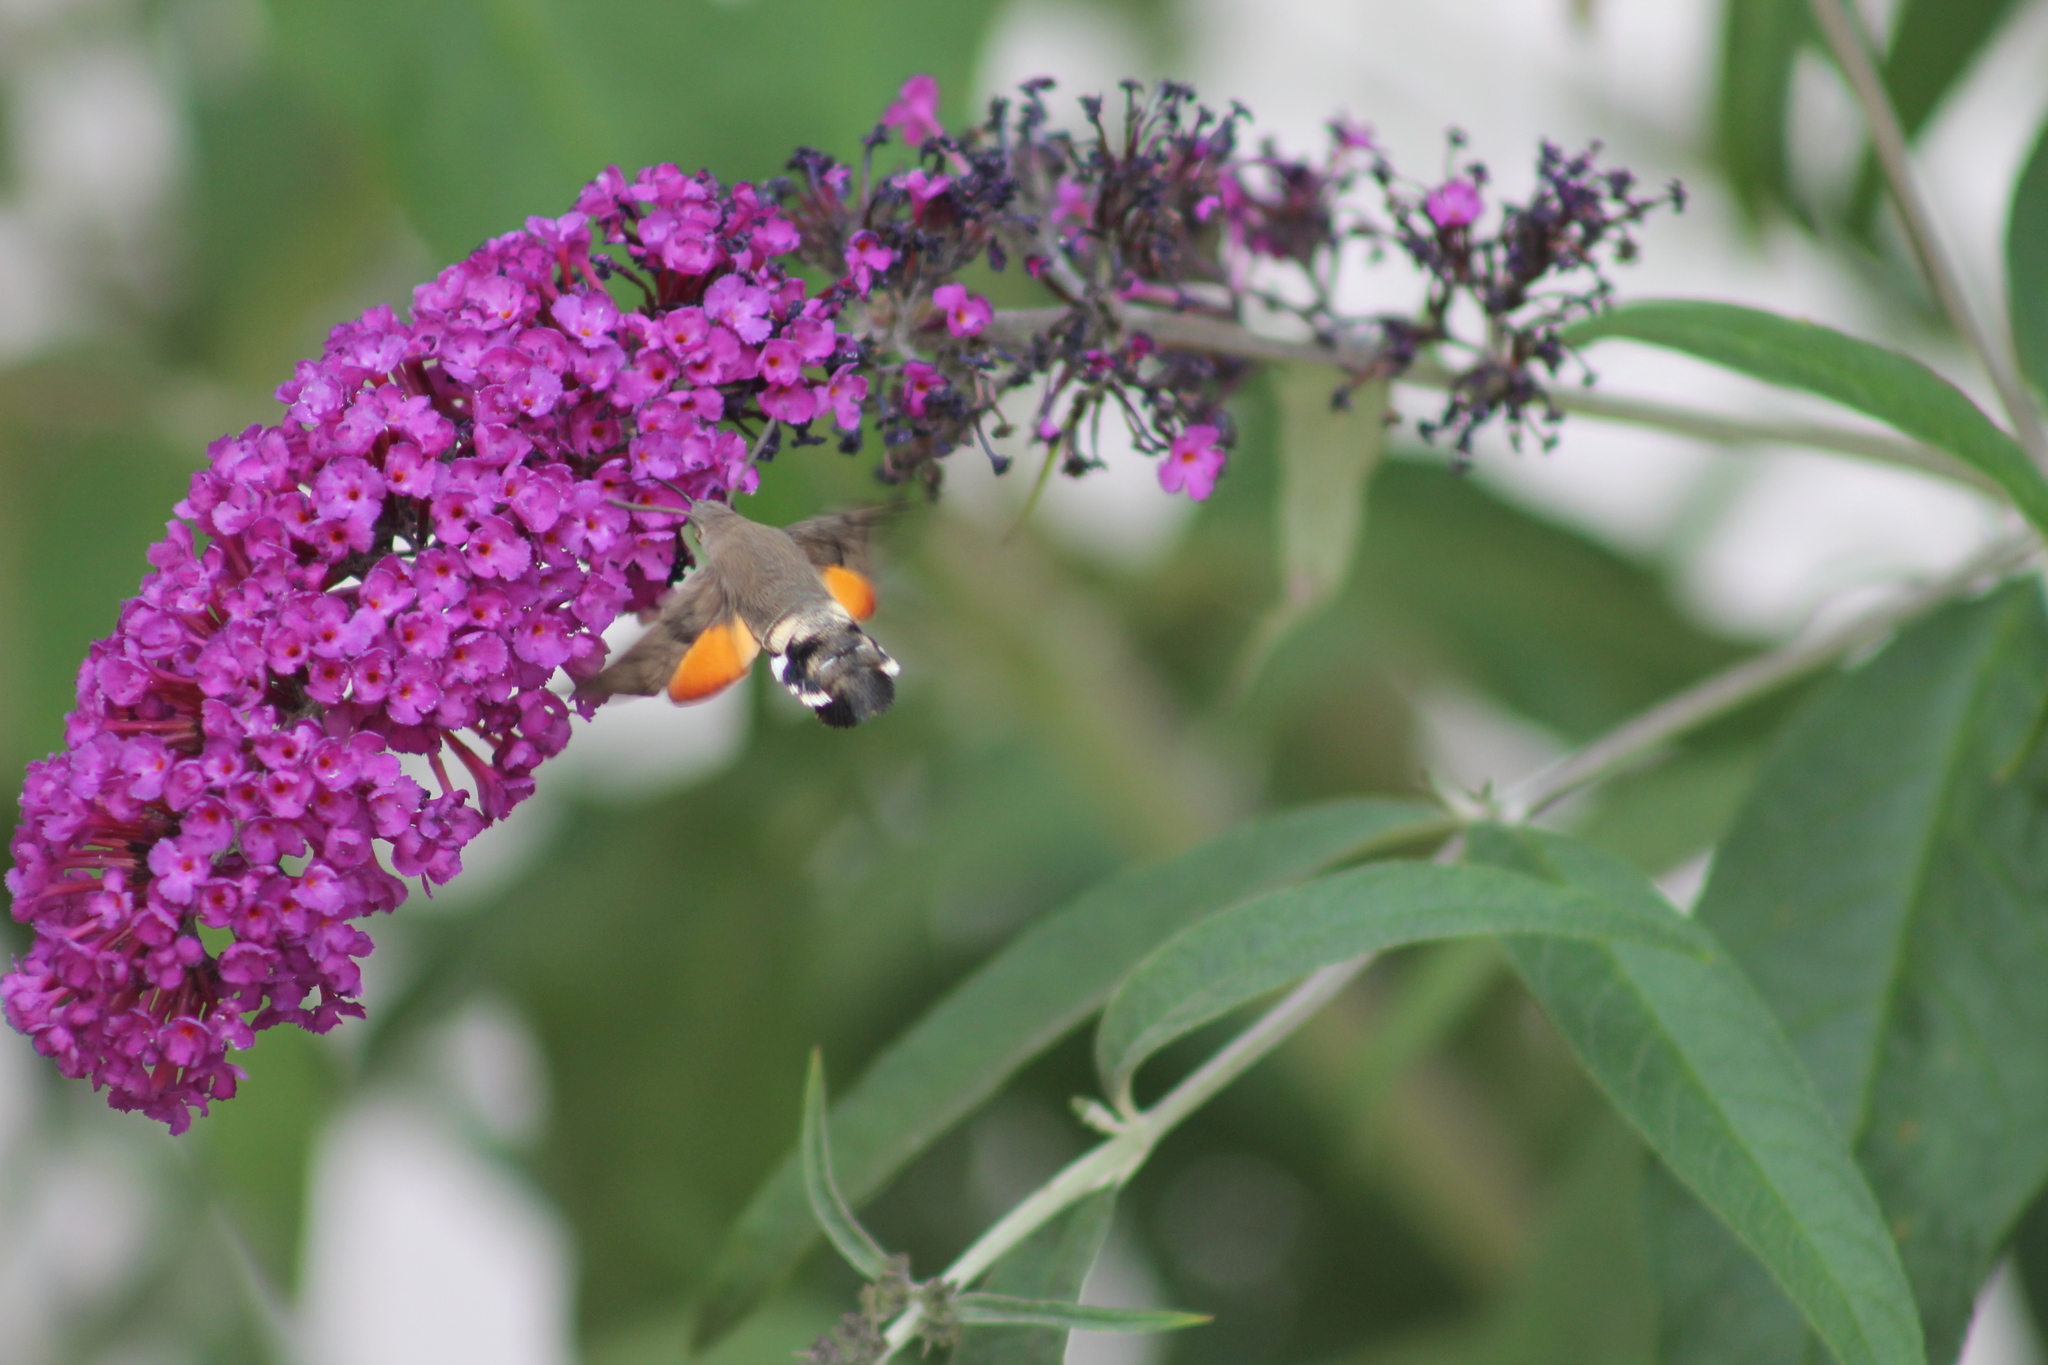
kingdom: Animalia
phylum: Arthropoda
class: Insecta
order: Lepidoptera
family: Sphingidae
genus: Macroglossum
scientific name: Macroglossum stellatarum
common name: Humming-bird hawk-moth
